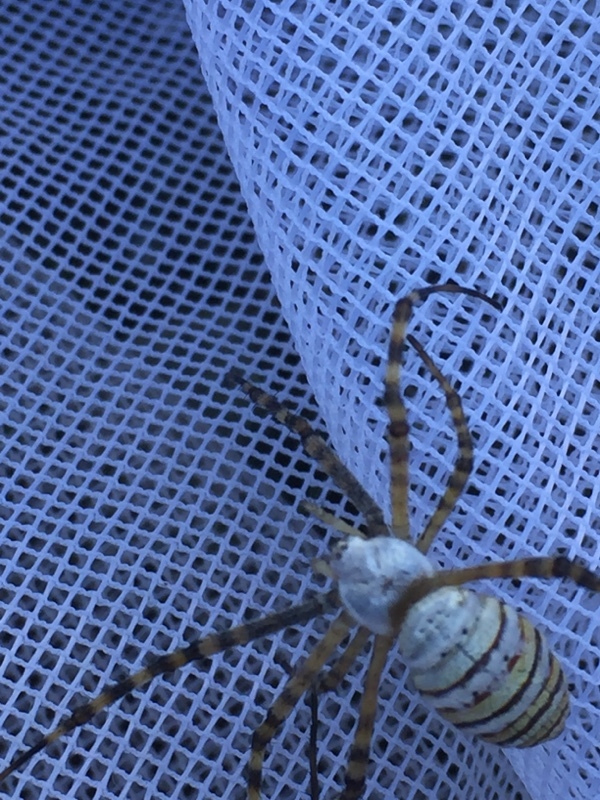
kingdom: Animalia
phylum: Arthropoda
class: Arachnida
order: Araneae
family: Araneidae
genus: Argiope
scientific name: Argiope trifasciata
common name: Banded garden spider
